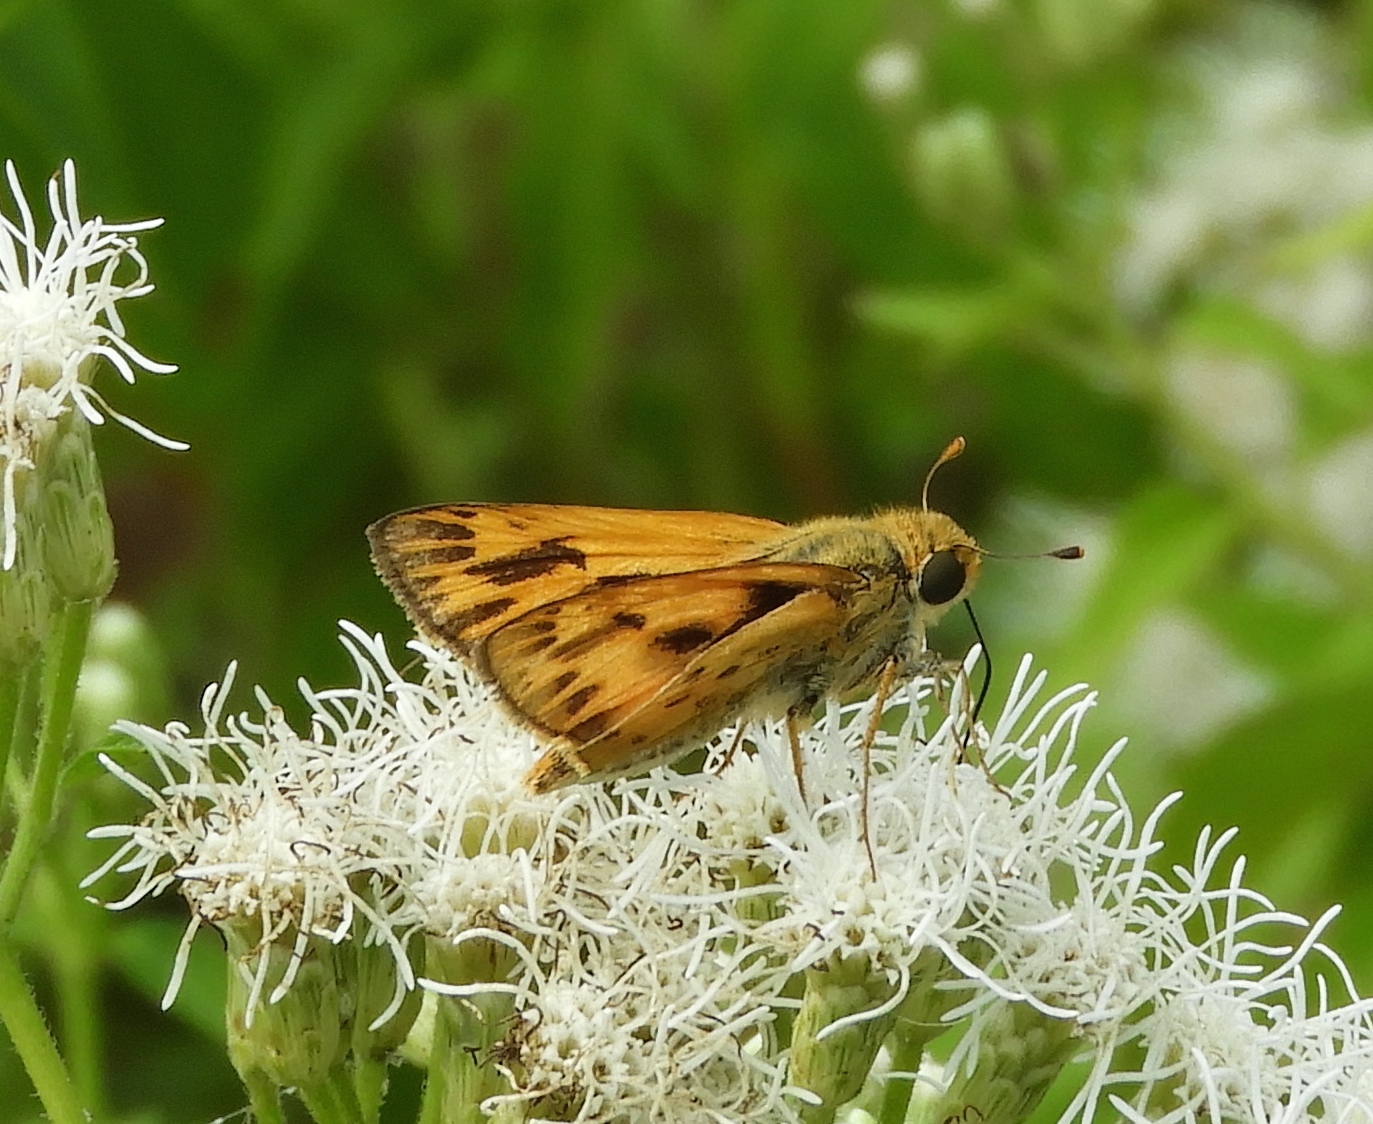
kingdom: Animalia
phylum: Arthropoda
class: Insecta
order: Lepidoptera
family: Hesperiidae
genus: Hylephila
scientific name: Hylephila phyleus
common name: Fiery skipper
